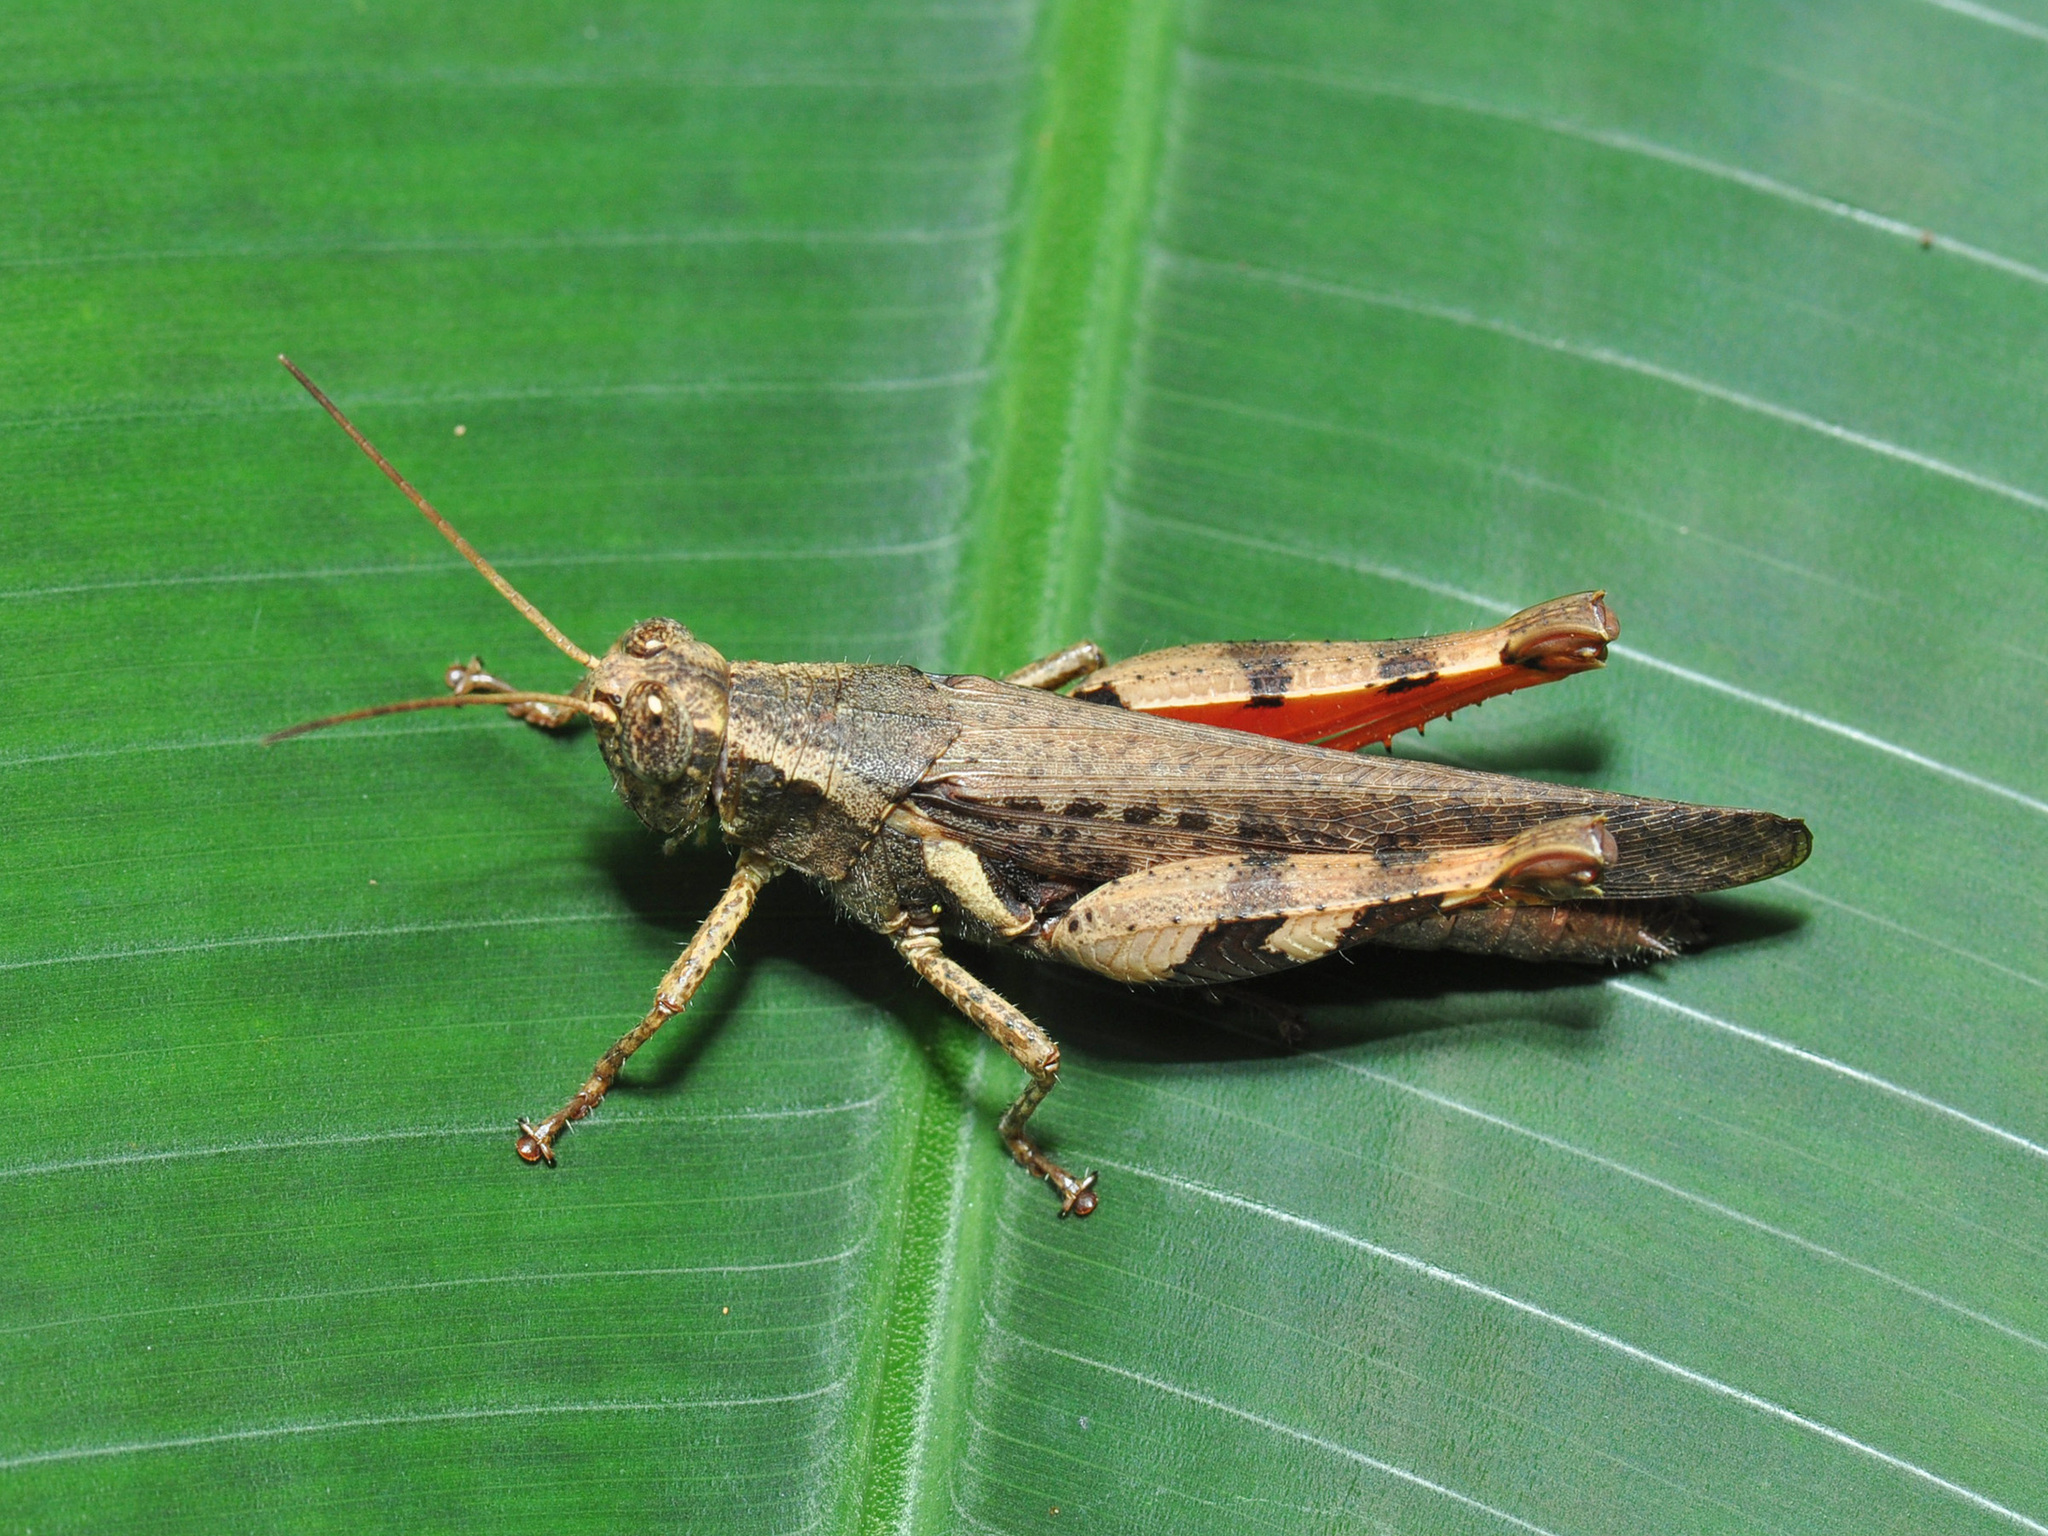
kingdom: Animalia
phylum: Arthropoda
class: Insecta
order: Orthoptera
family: Acrididae
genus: Xenocatantops
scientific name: Xenocatantops humile
